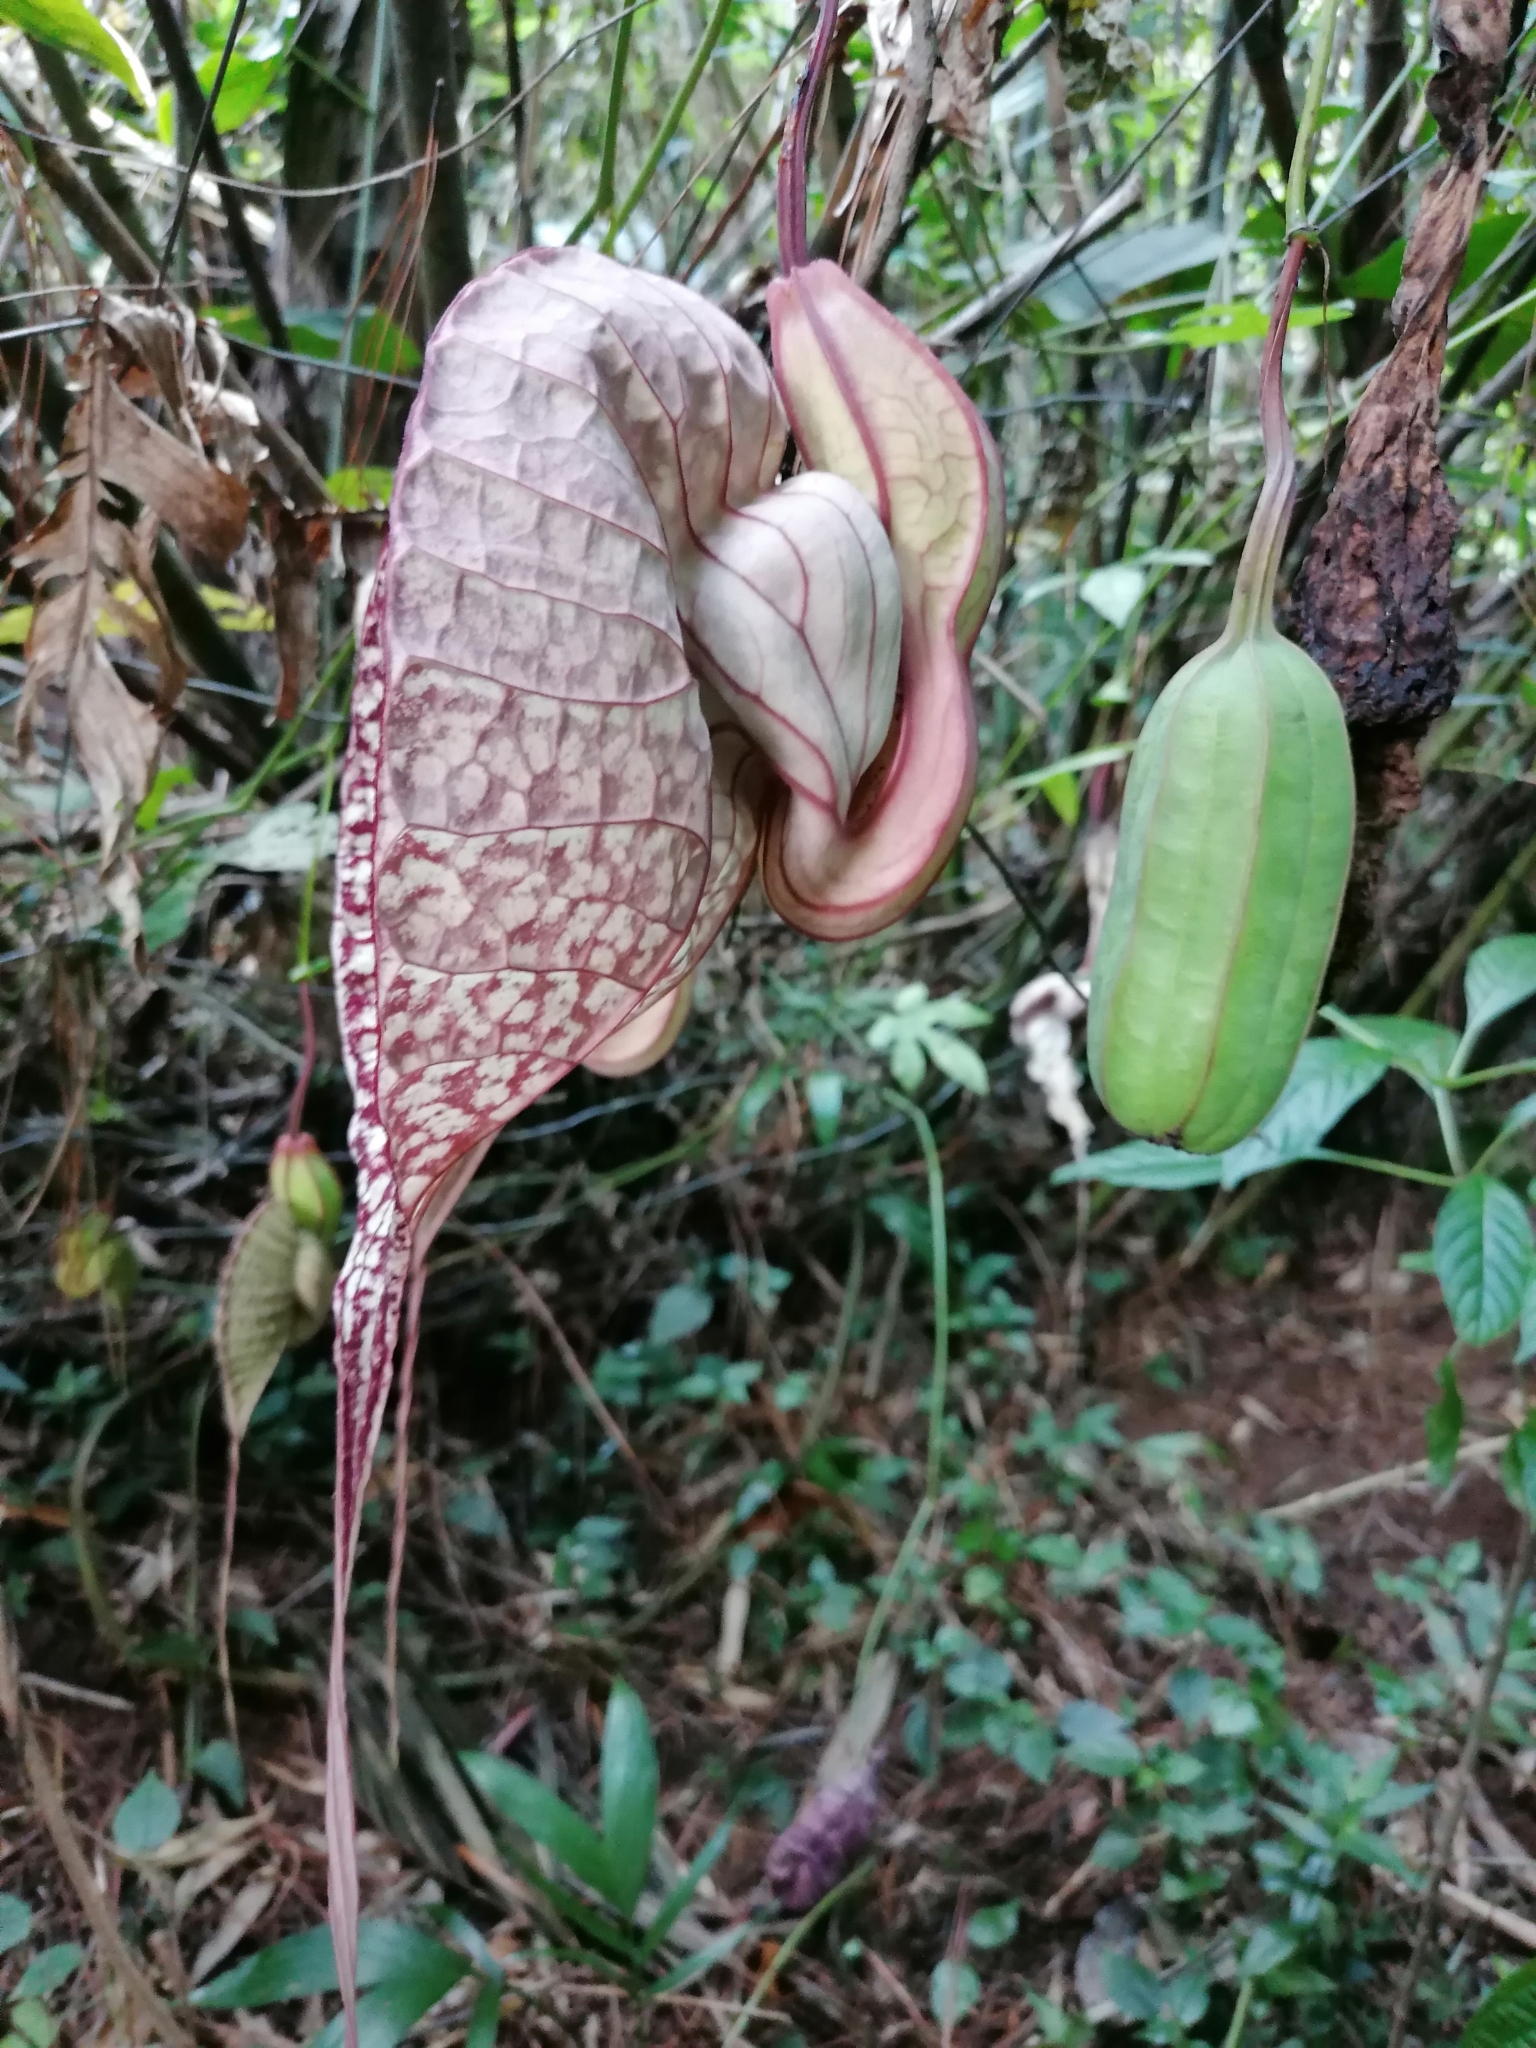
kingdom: Plantae
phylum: Tracheophyta
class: Magnoliopsida
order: Piperales
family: Aristolochiaceae
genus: Aristolochia
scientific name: Aristolochia grandiflora
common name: Pelicanflower
